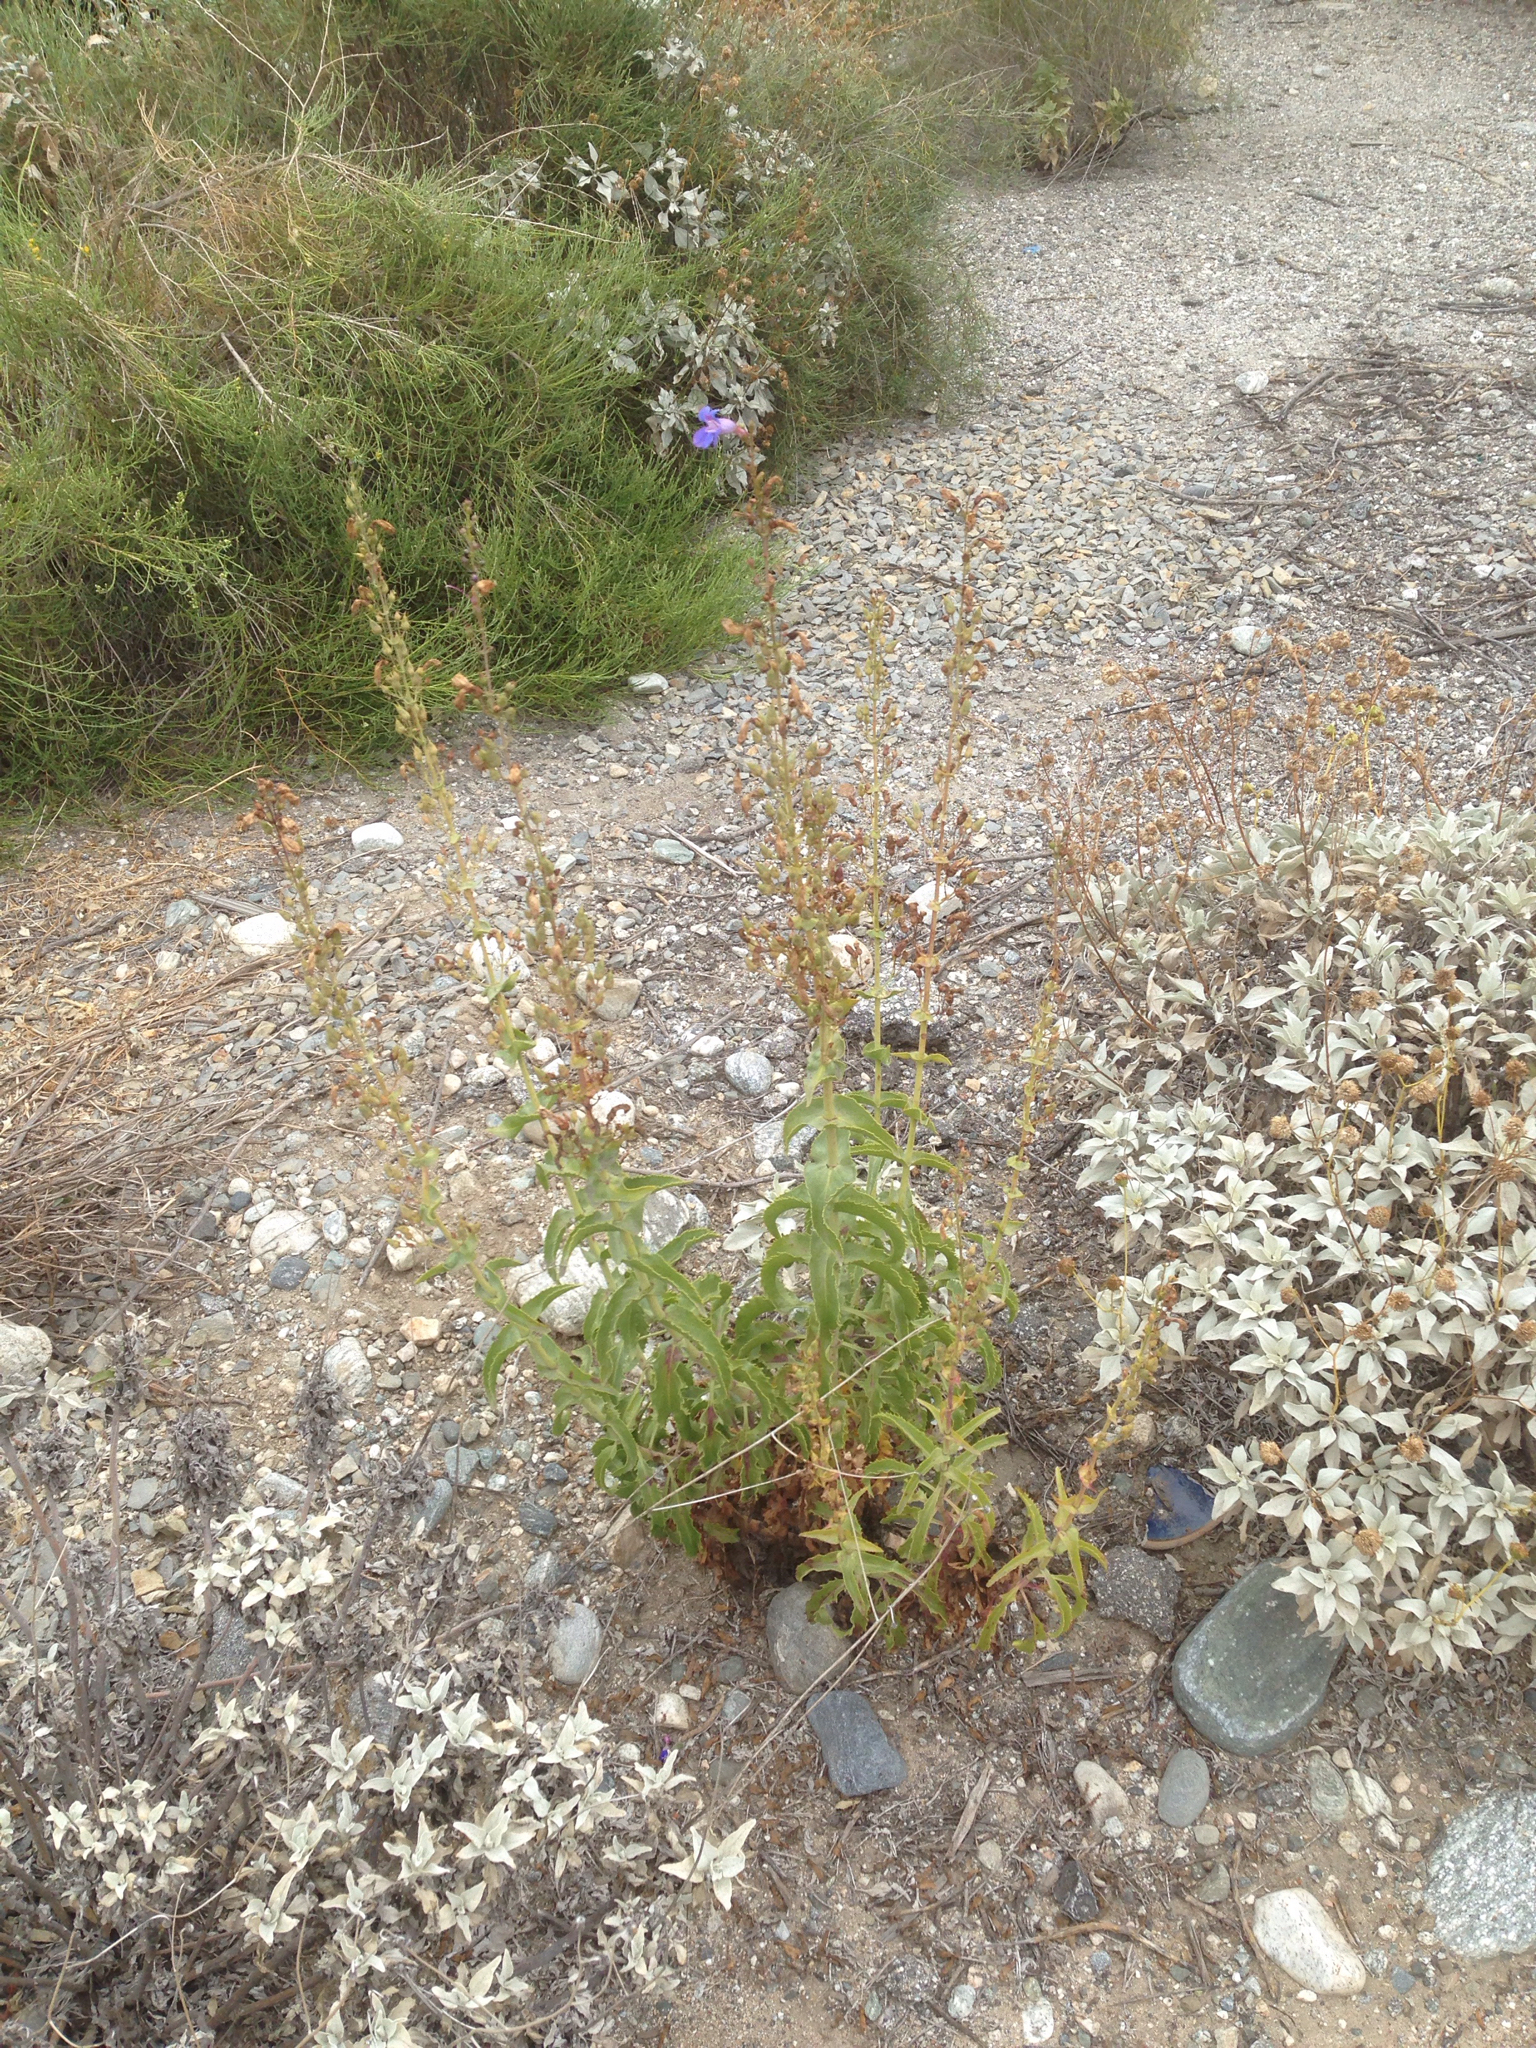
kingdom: Plantae
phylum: Tracheophyta
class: Magnoliopsida
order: Lamiales
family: Plantaginaceae
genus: Penstemon
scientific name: Penstemon spectabilis
